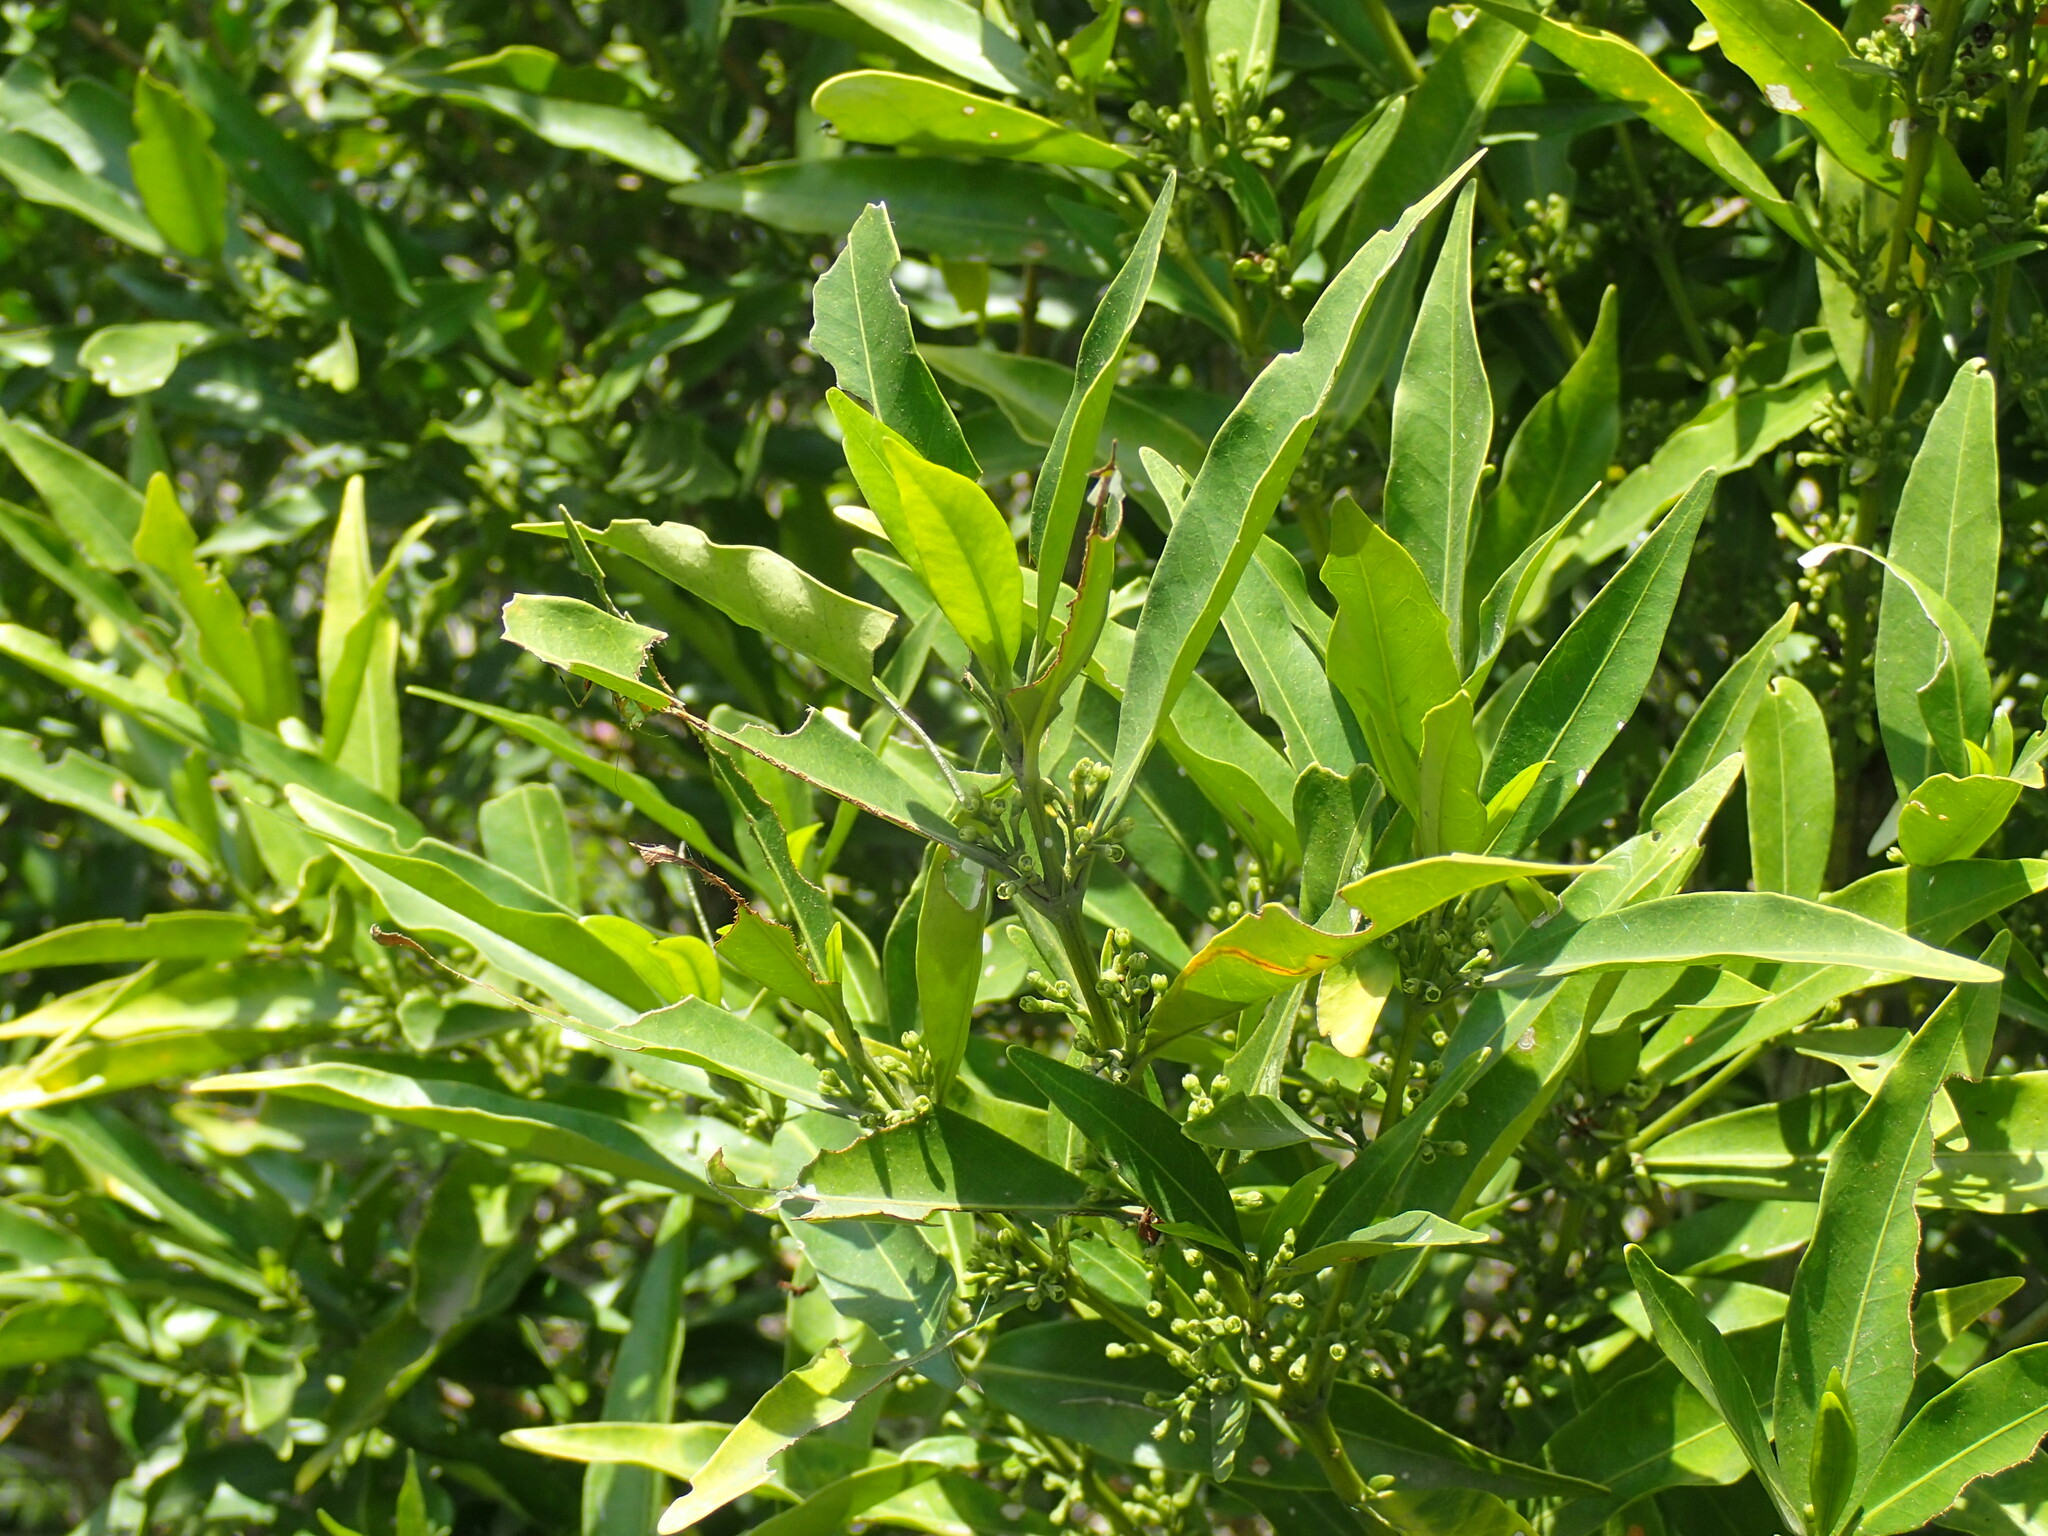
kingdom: Plantae
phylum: Tracheophyta
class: Magnoliopsida
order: Gentianales
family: Rubiaceae
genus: Empogona
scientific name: Empogona lanceolata
